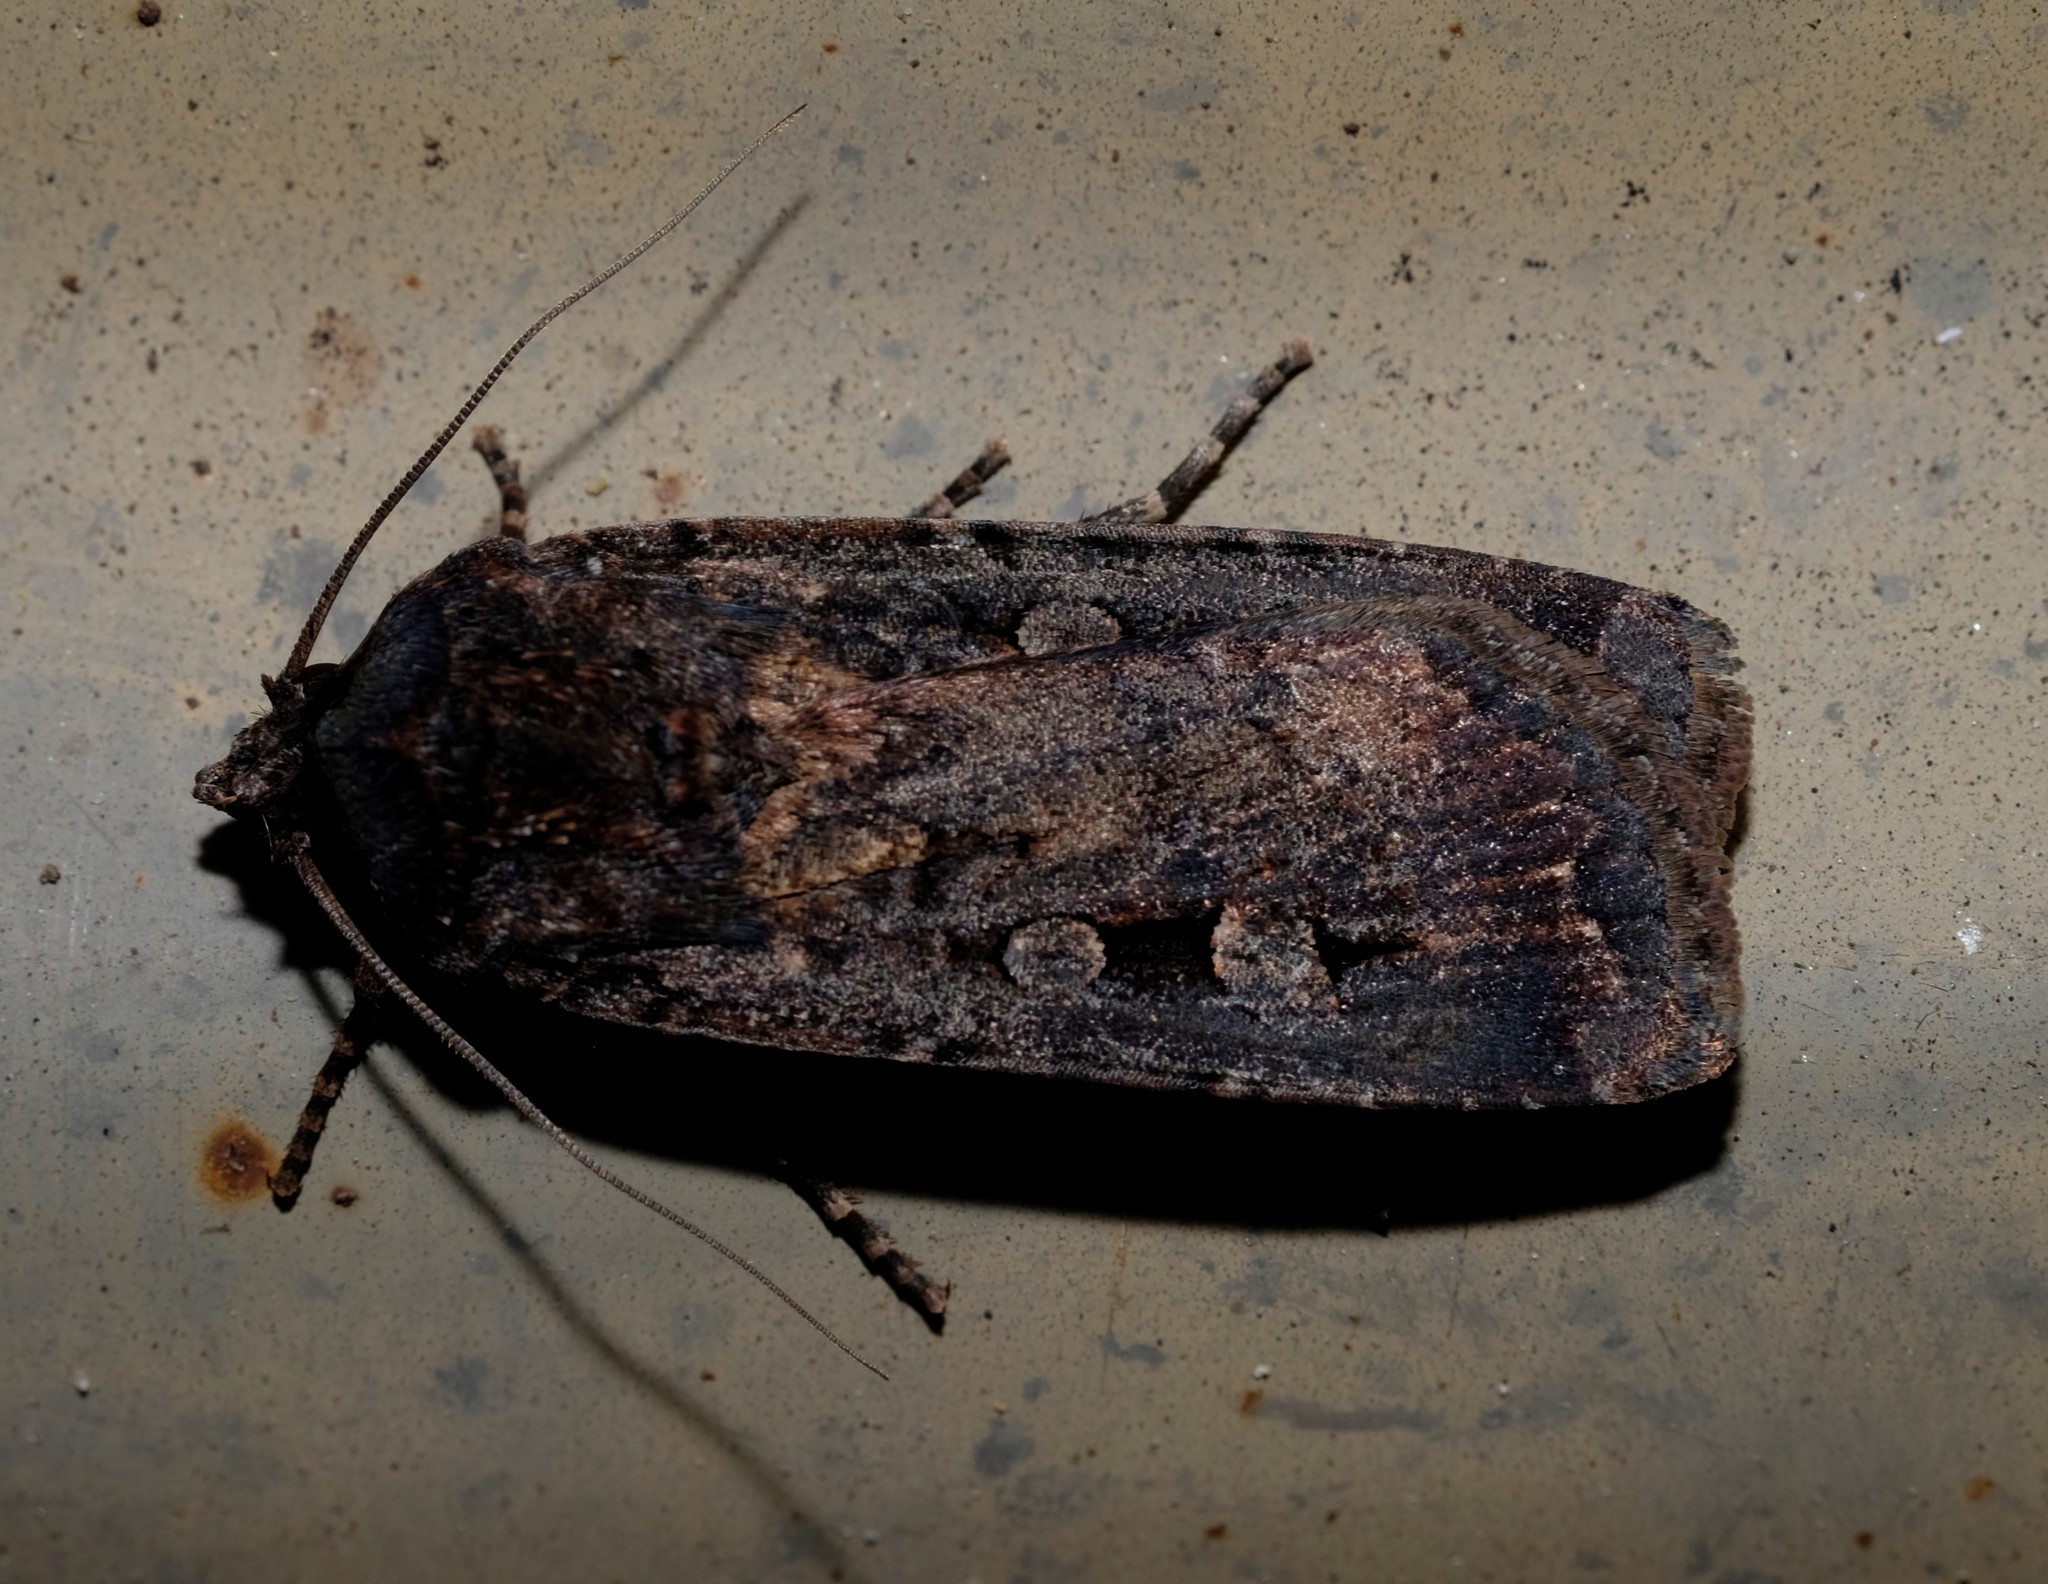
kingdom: Animalia
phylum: Arthropoda
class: Insecta
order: Lepidoptera
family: Noctuidae
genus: Agrotis
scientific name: Agrotis infusa
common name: Bogong moth
